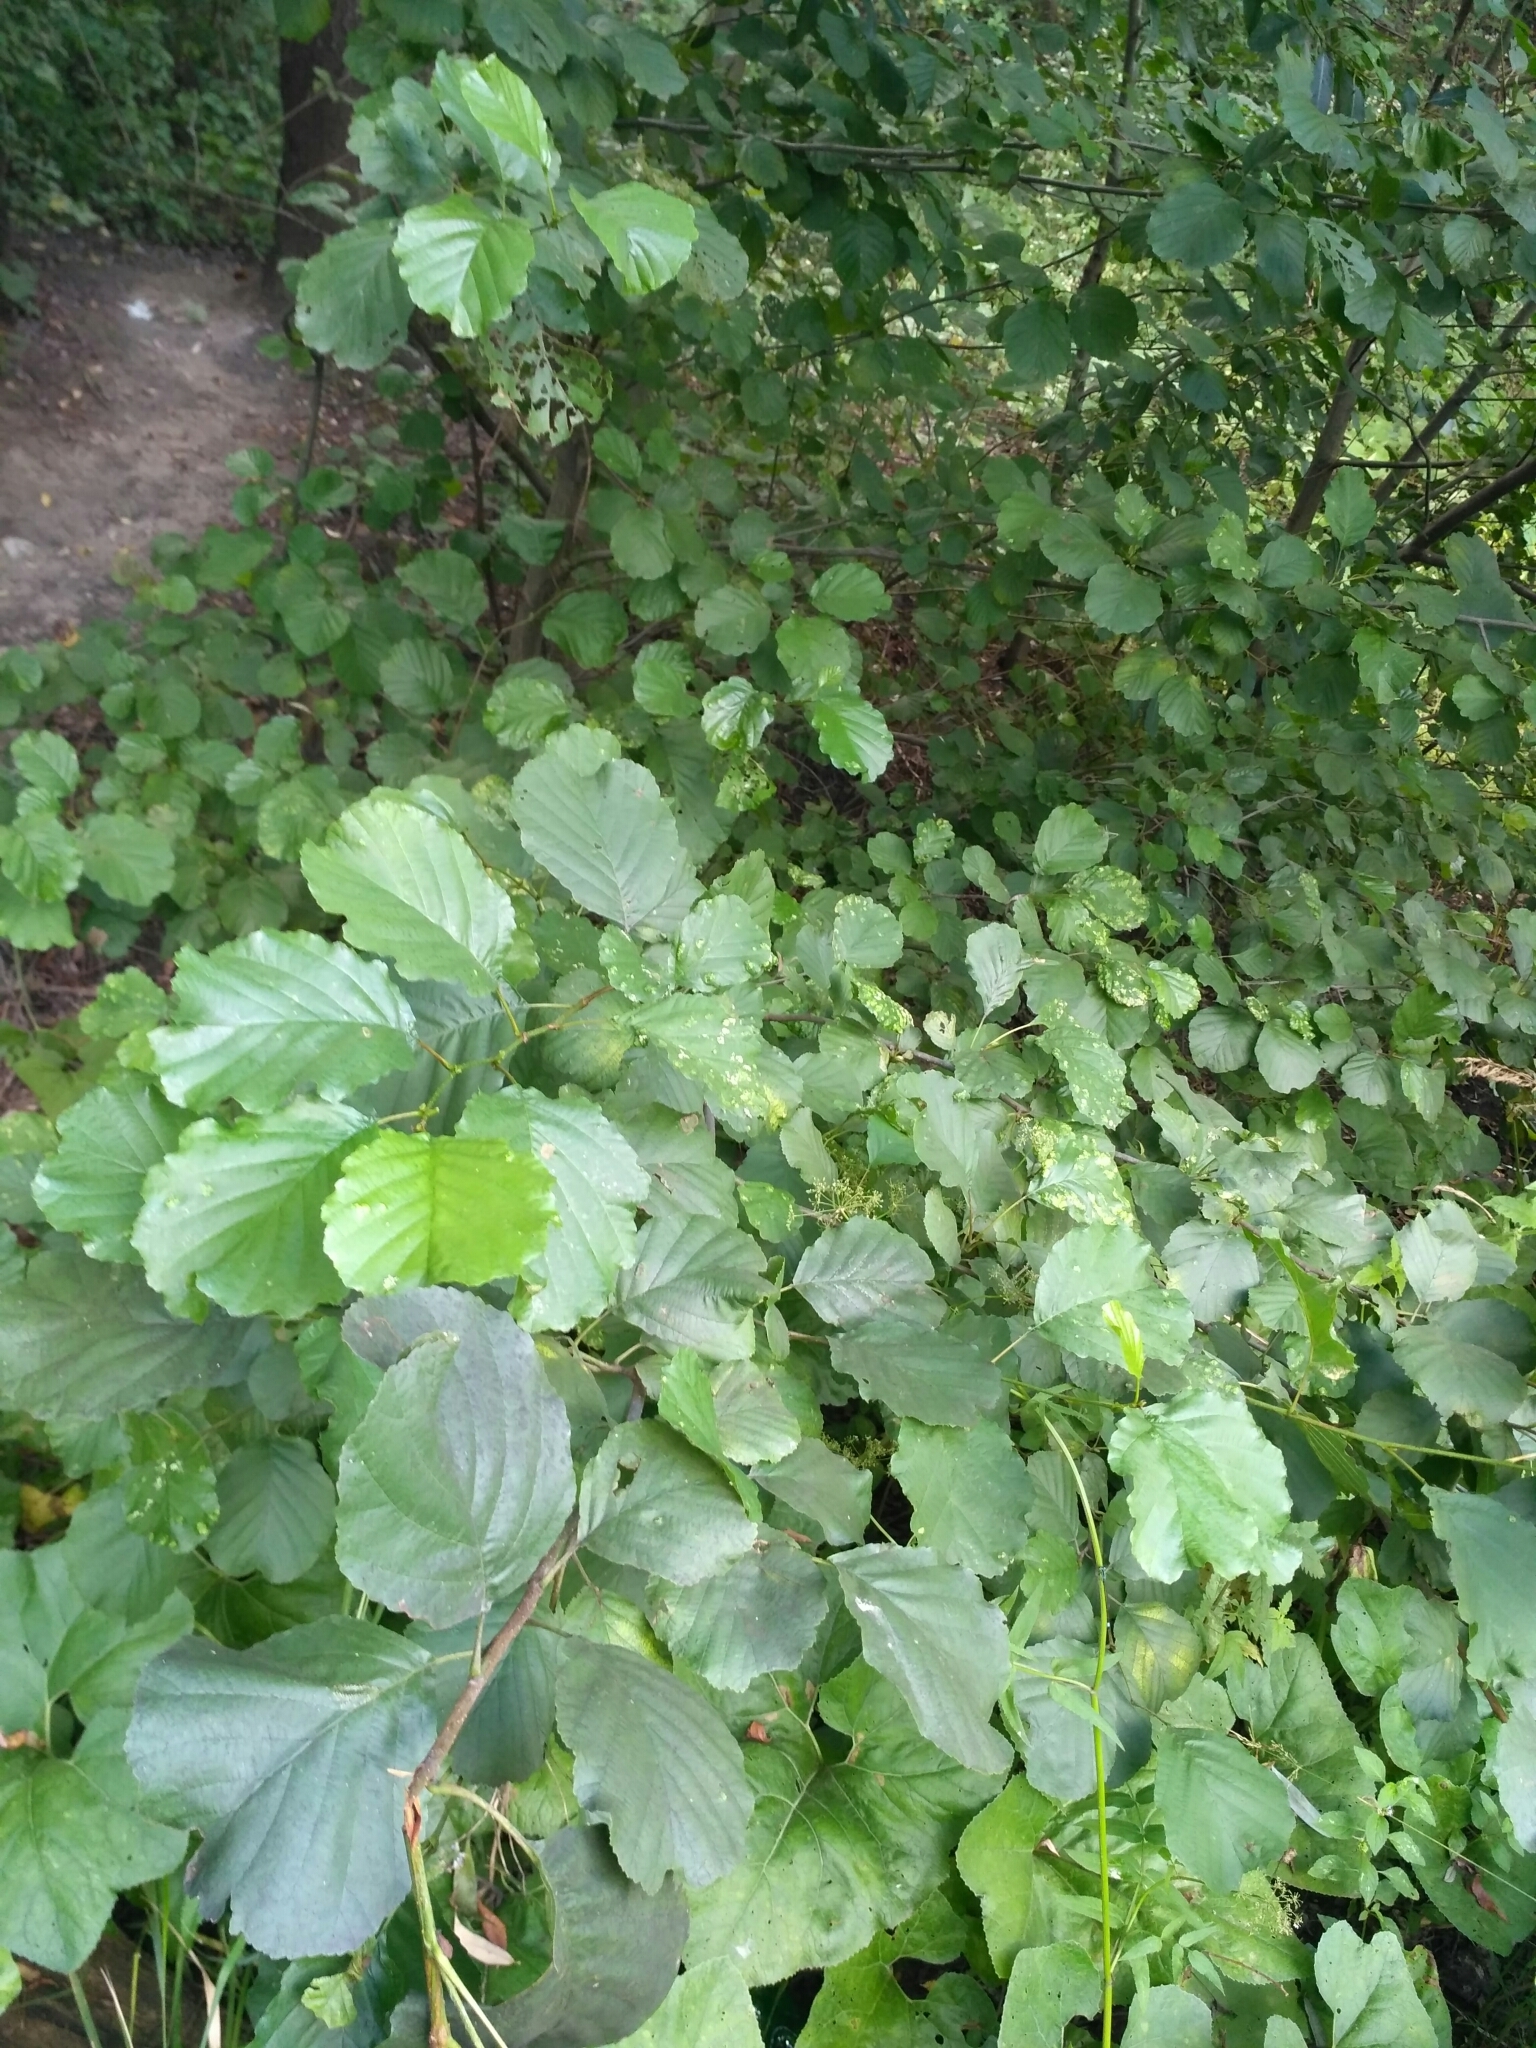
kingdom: Plantae
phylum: Tracheophyta
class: Magnoliopsida
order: Fagales
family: Betulaceae
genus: Alnus
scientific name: Alnus glutinosa
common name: Black alder
